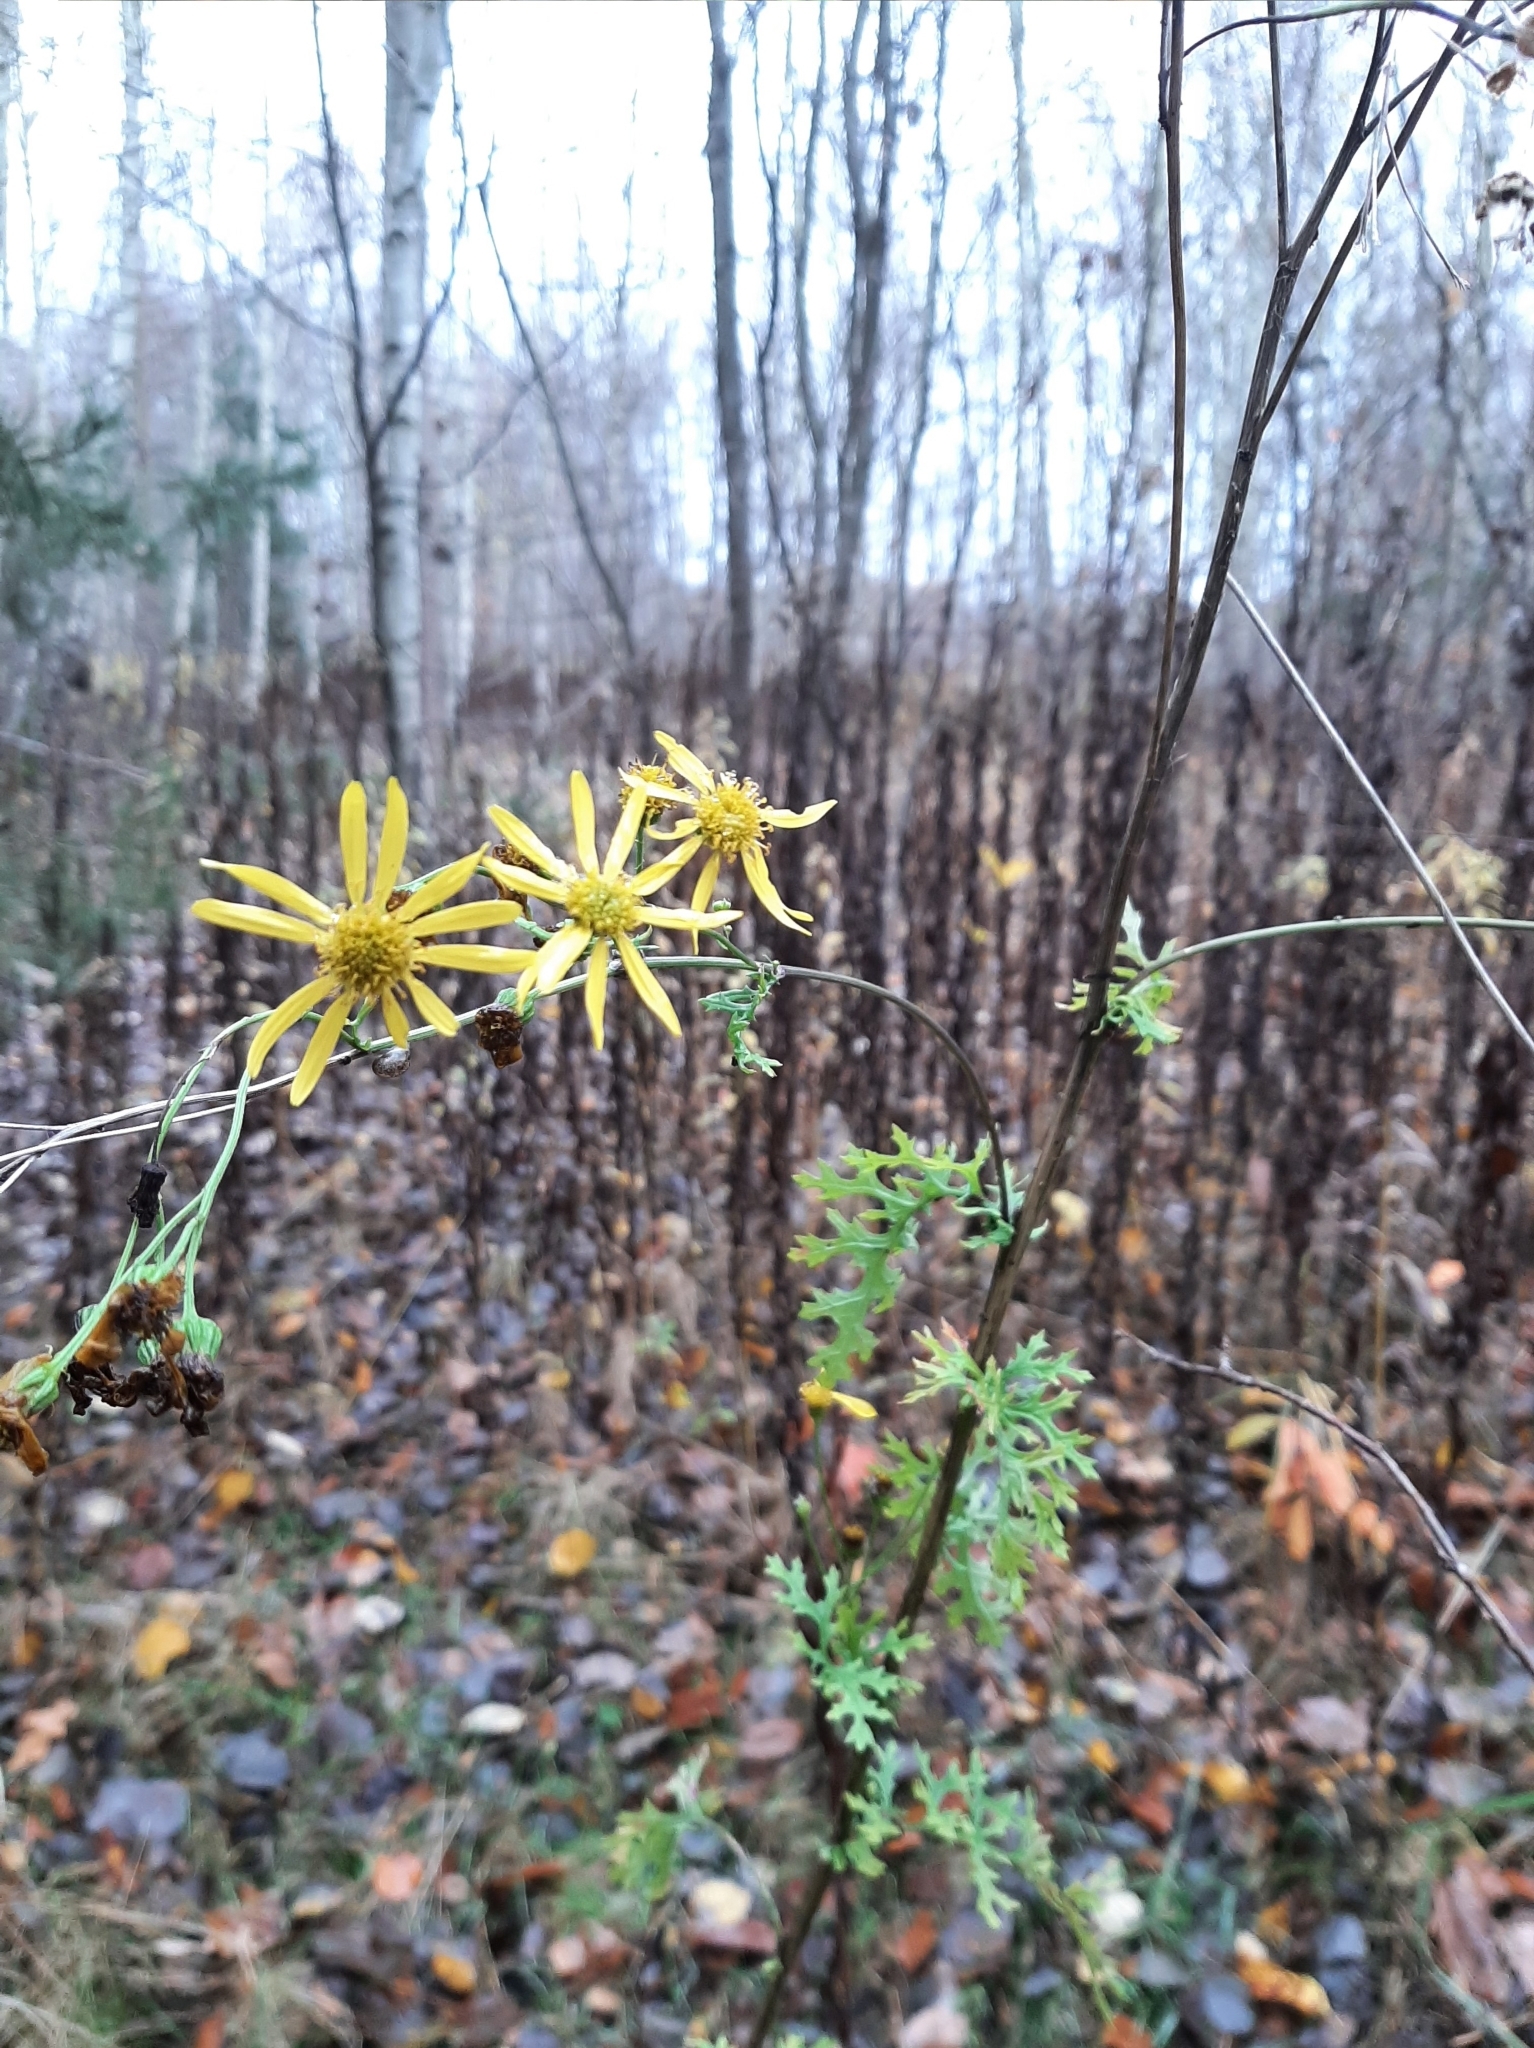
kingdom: Plantae
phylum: Tracheophyta
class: Magnoliopsida
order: Asterales
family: Asteraceae
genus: Jacobaea
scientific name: Jacobaea vulgaris
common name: Stinking willie
